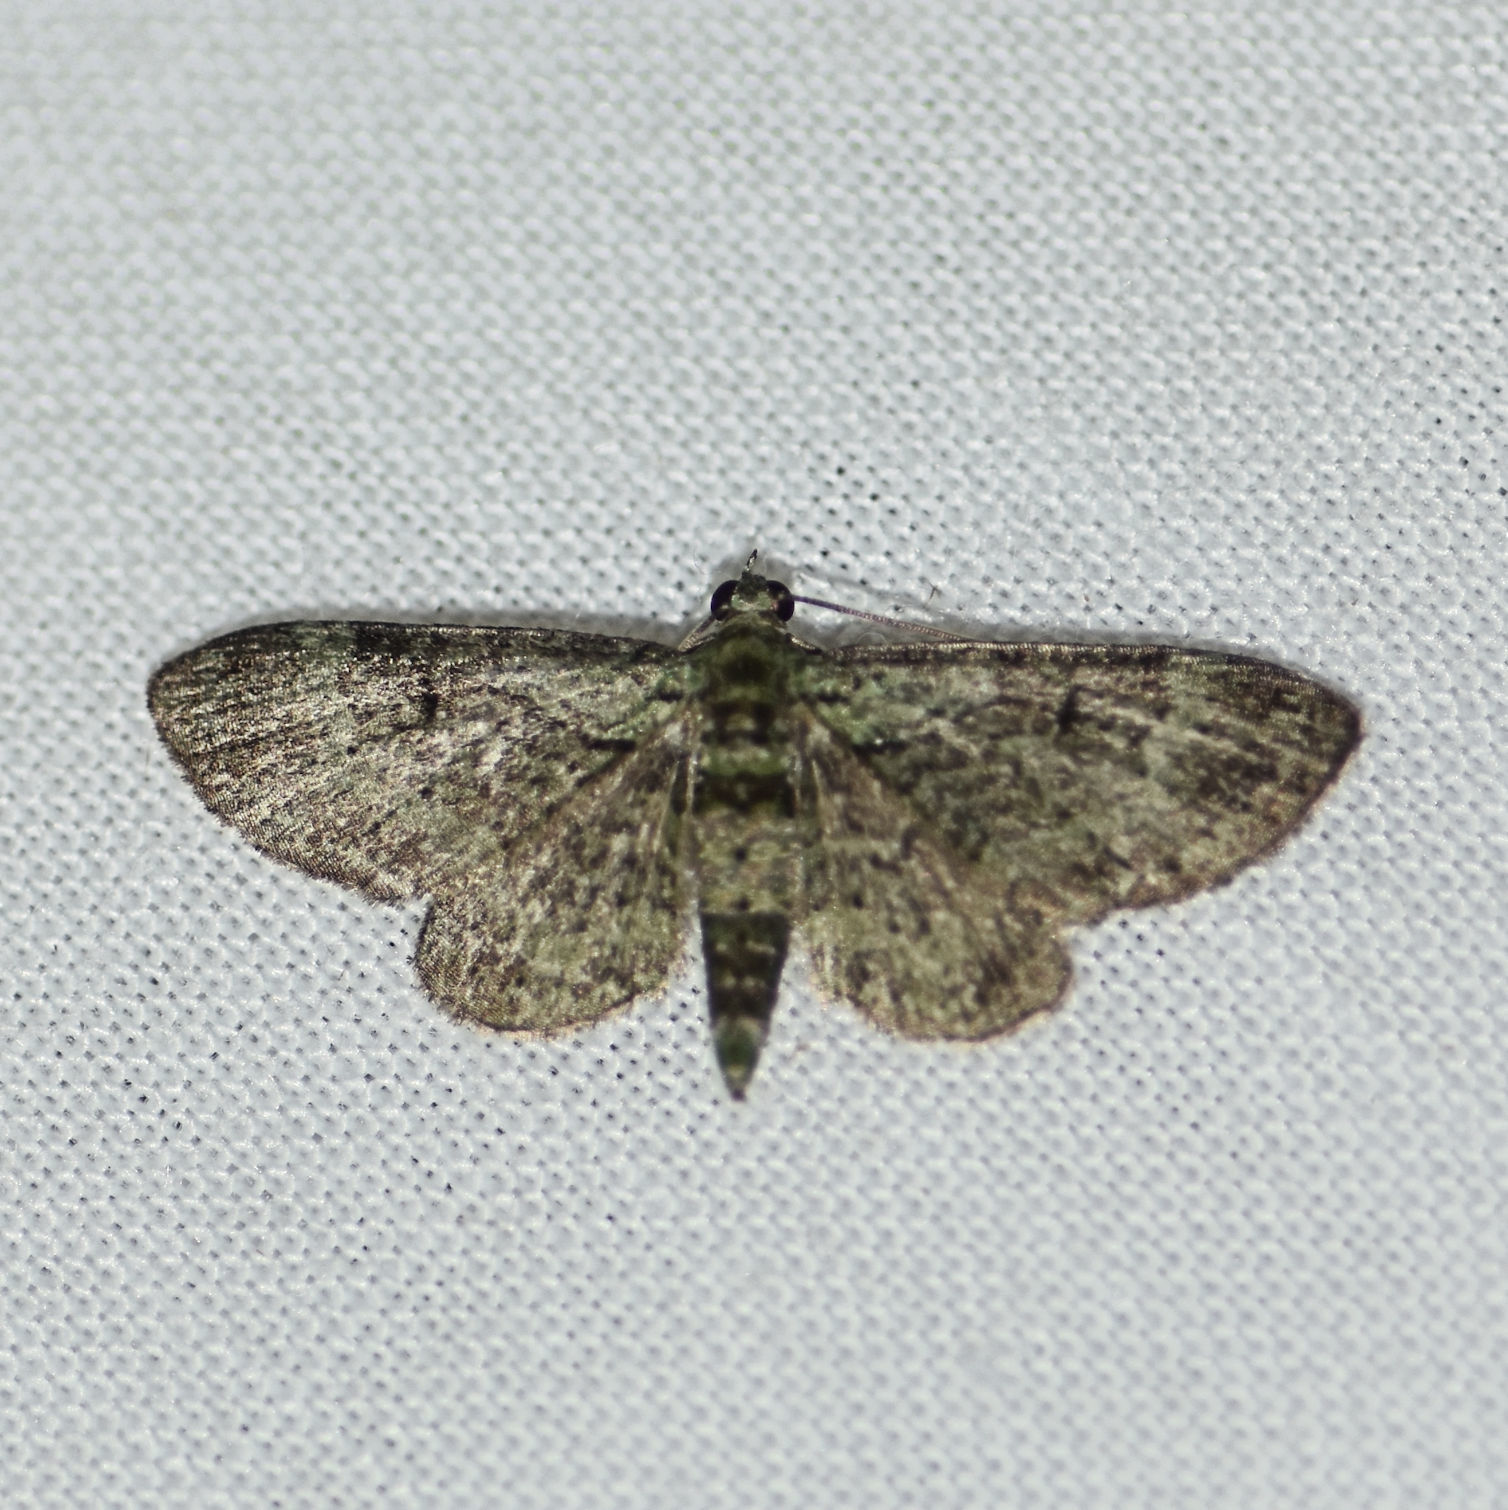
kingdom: Animalia
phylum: Arthropoda
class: Insecta
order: Lepidoptera
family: Geometridae
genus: Pasiphila
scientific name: Pasiphila rectangulata
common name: Green pug
